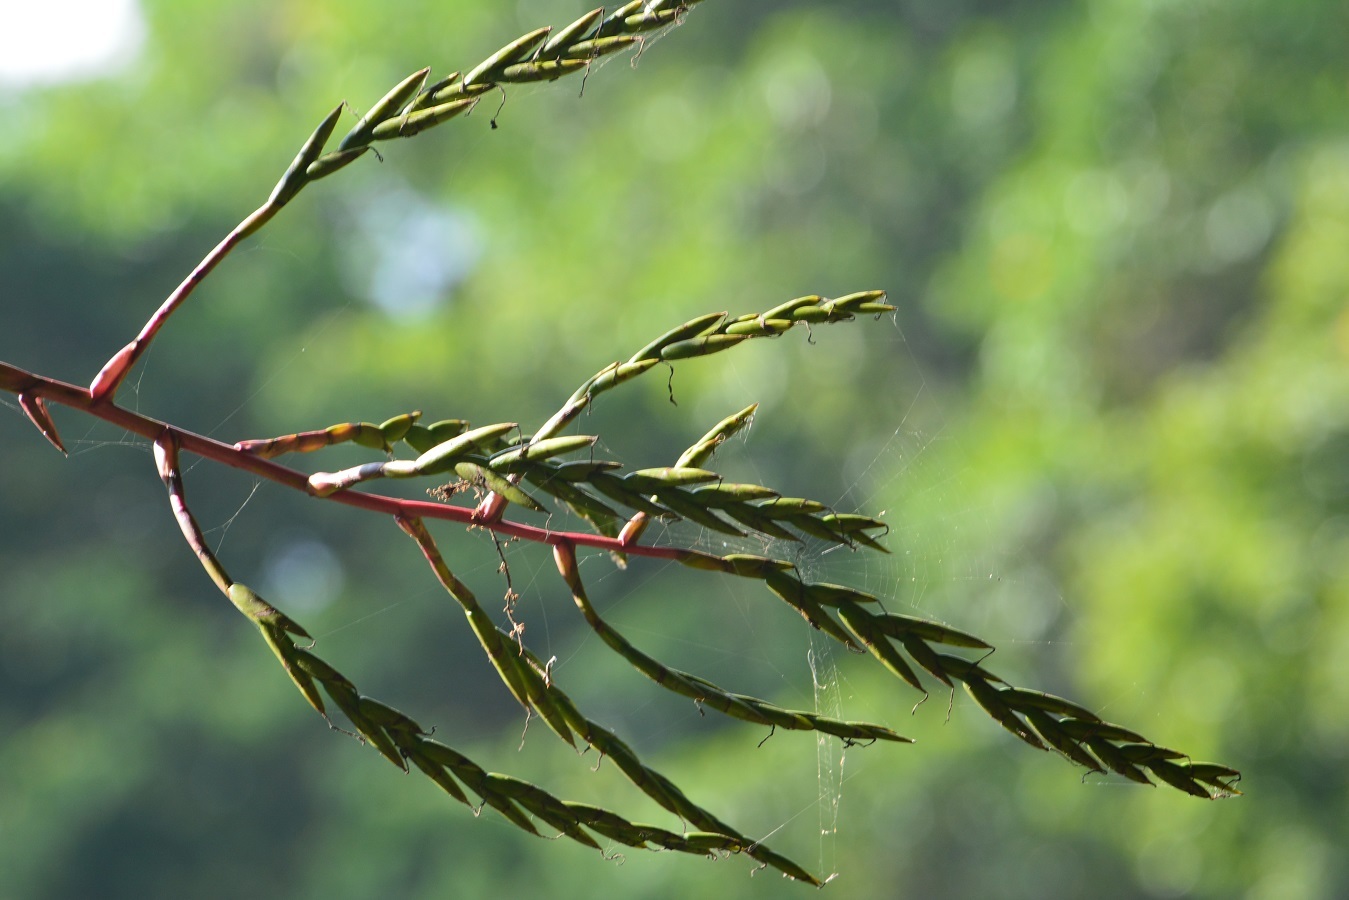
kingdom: Plantae
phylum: Tracheophyta
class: Liliopsida
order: Poales
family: Bromeliaceae
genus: Tillandsia
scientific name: Tillandsia elusiva
